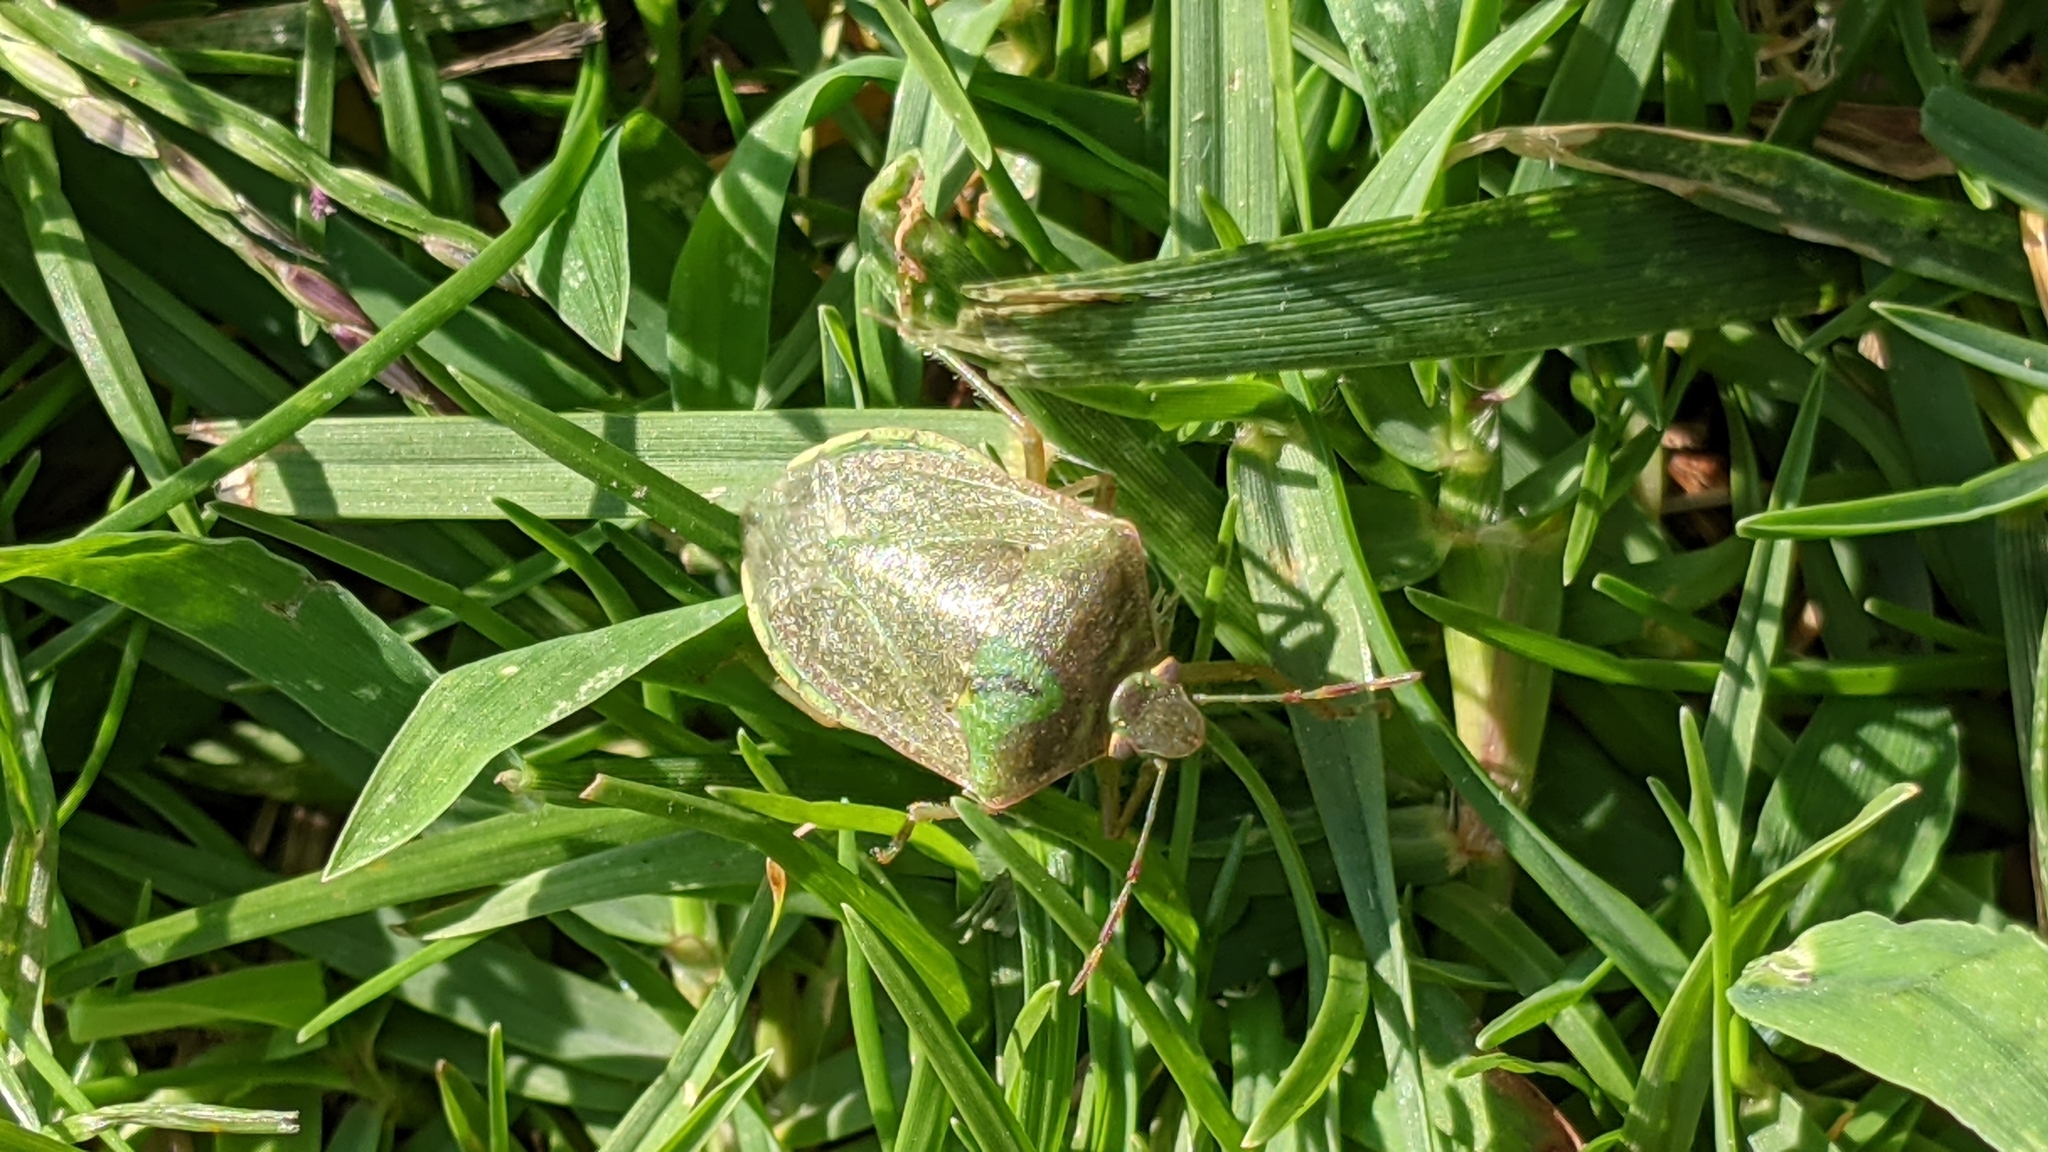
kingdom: Animalia
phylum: Arthropoda
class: Insecta
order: Hemiptera
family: Pentatomidae
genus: Nezara
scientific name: Nezara viridula
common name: Southern green stink bug
